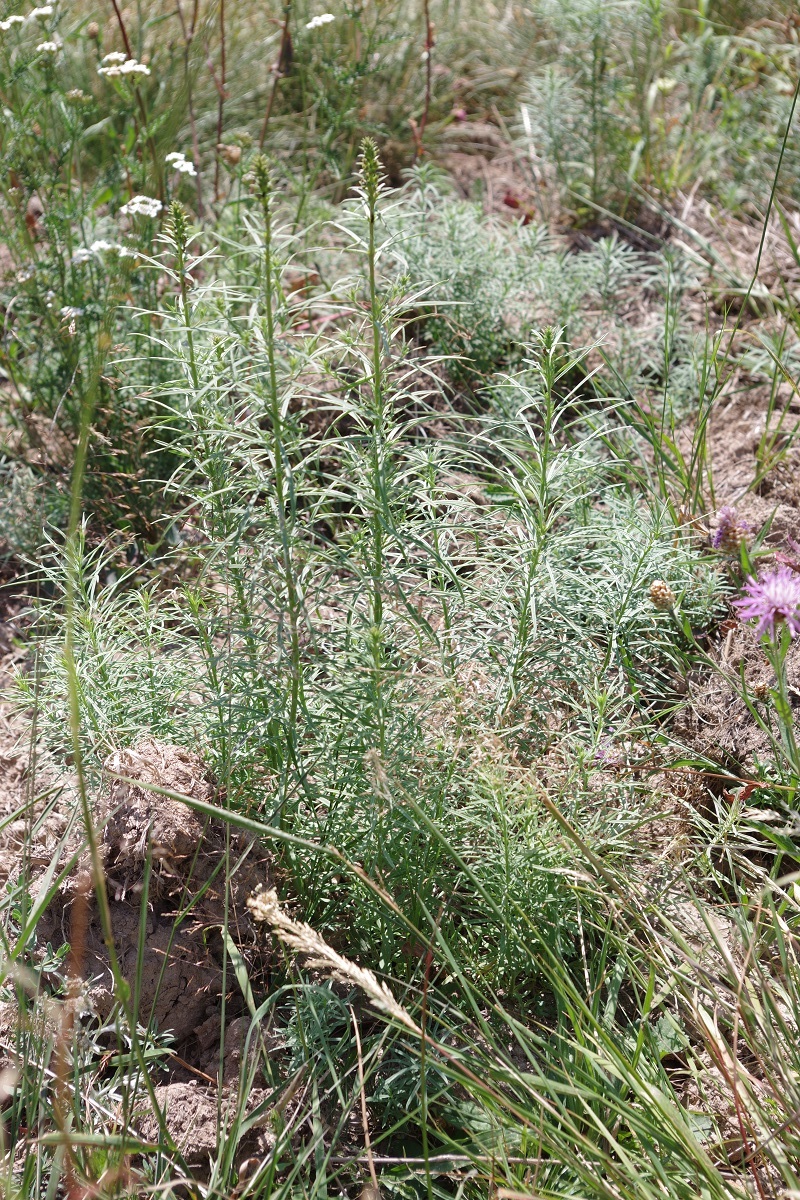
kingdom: Plantae
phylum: Tracheophyta
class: Magnoliopsida
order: Lamiales
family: Plantaginaceae
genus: Linaria
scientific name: Linaria vulgaris
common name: Butter and eggs
